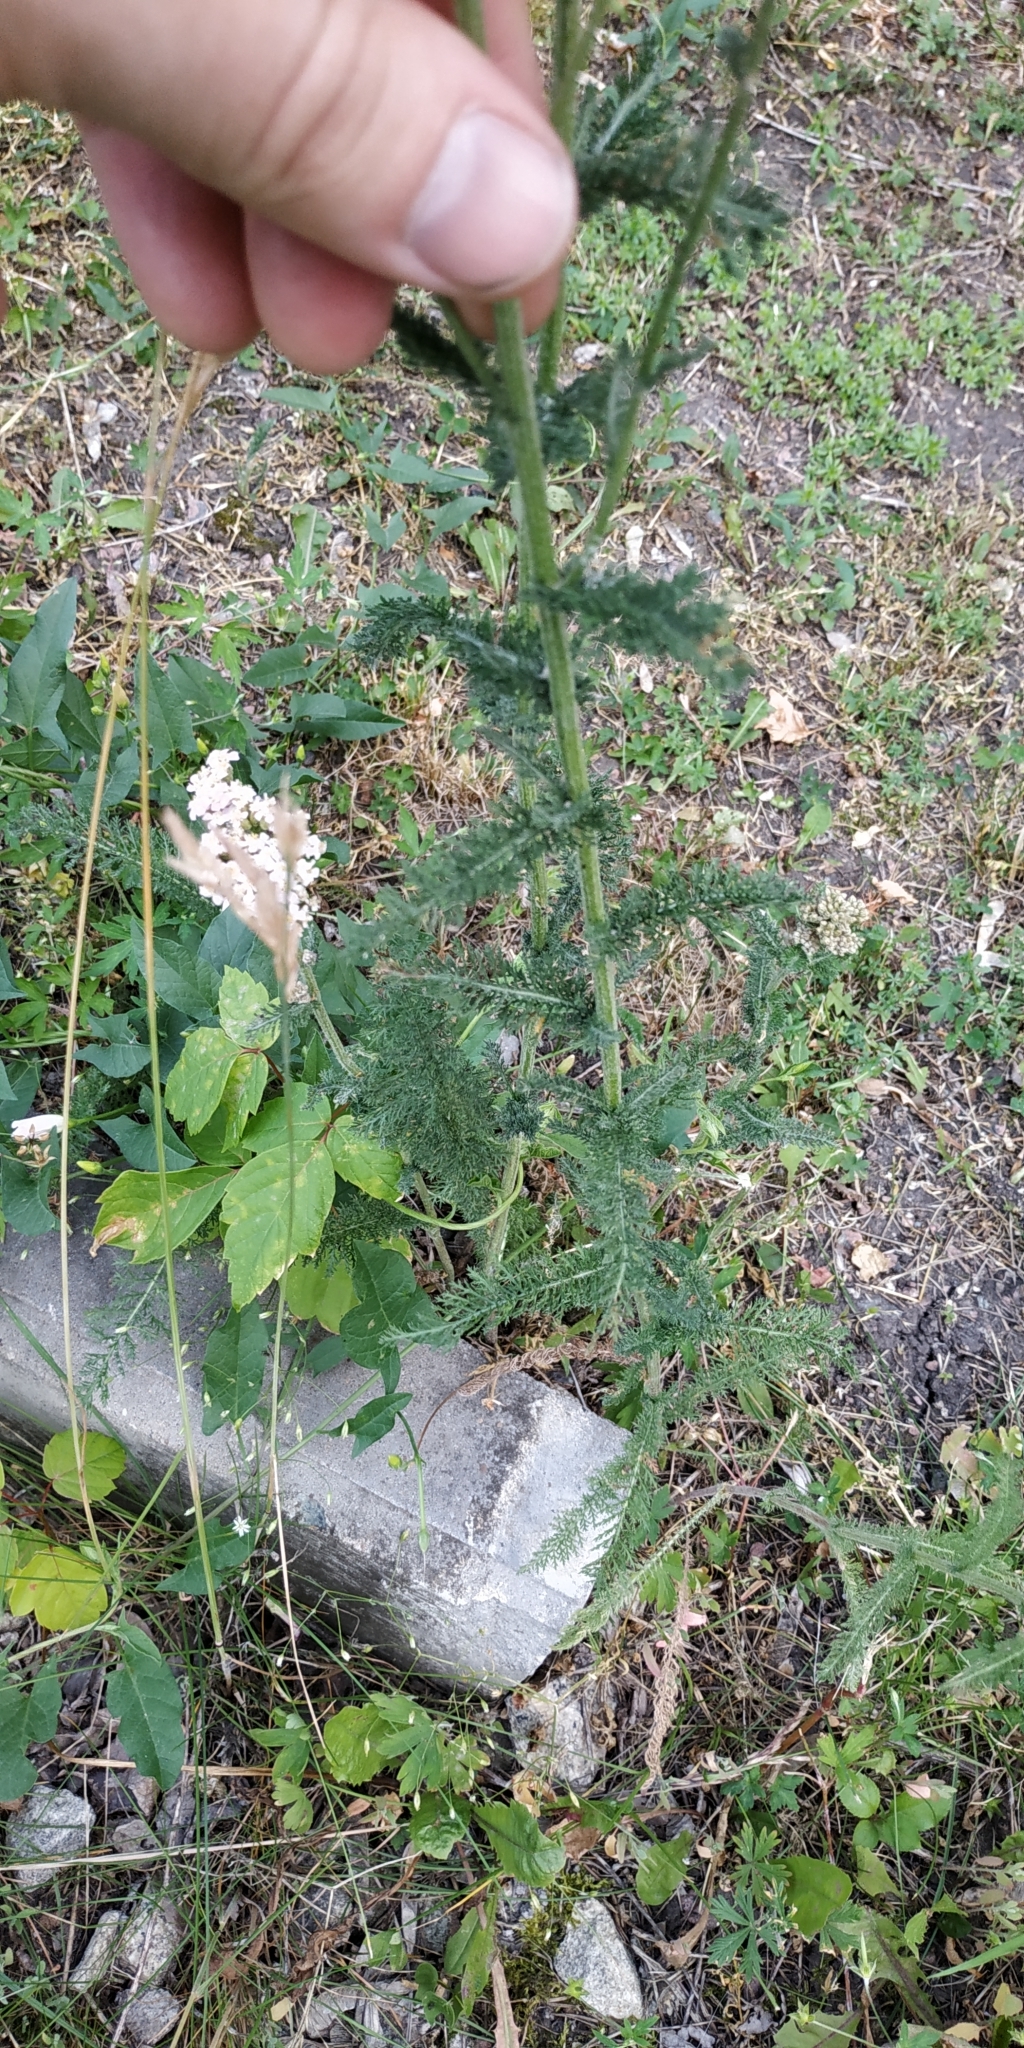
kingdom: Plantae
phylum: Tracheophyta
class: Magnoliopsida
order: Asterales
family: Asteraceae
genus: Achillea
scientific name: Achillea millefolium
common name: Yarrow
